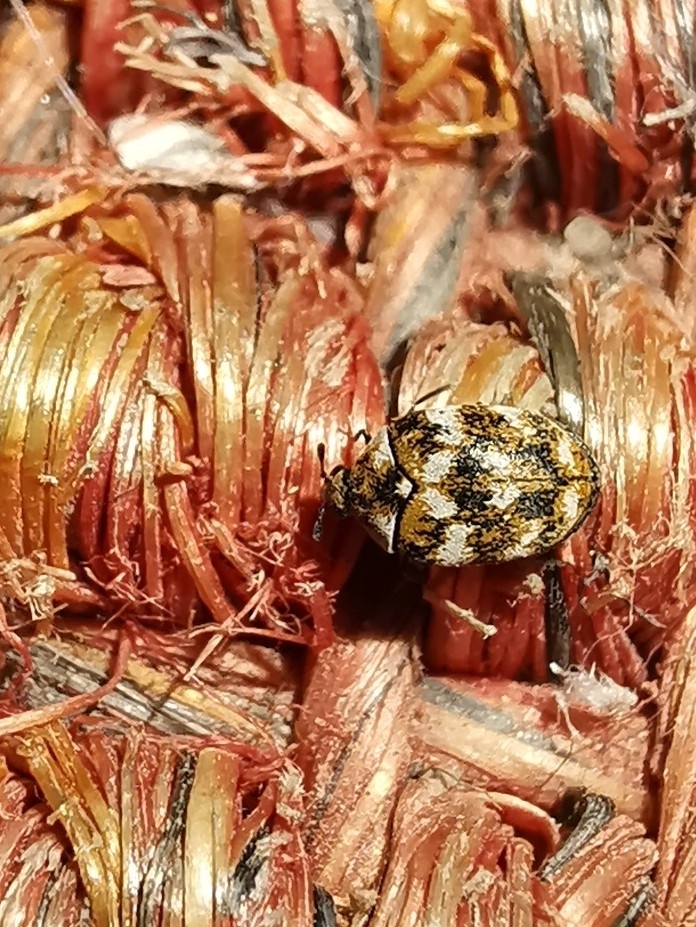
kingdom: Animalia
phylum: Arthropoda
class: Insecta
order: Coleoptera
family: Dermestidae
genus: Anthrenus
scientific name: Anthrenus verbasci
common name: Varied carpet beetle
